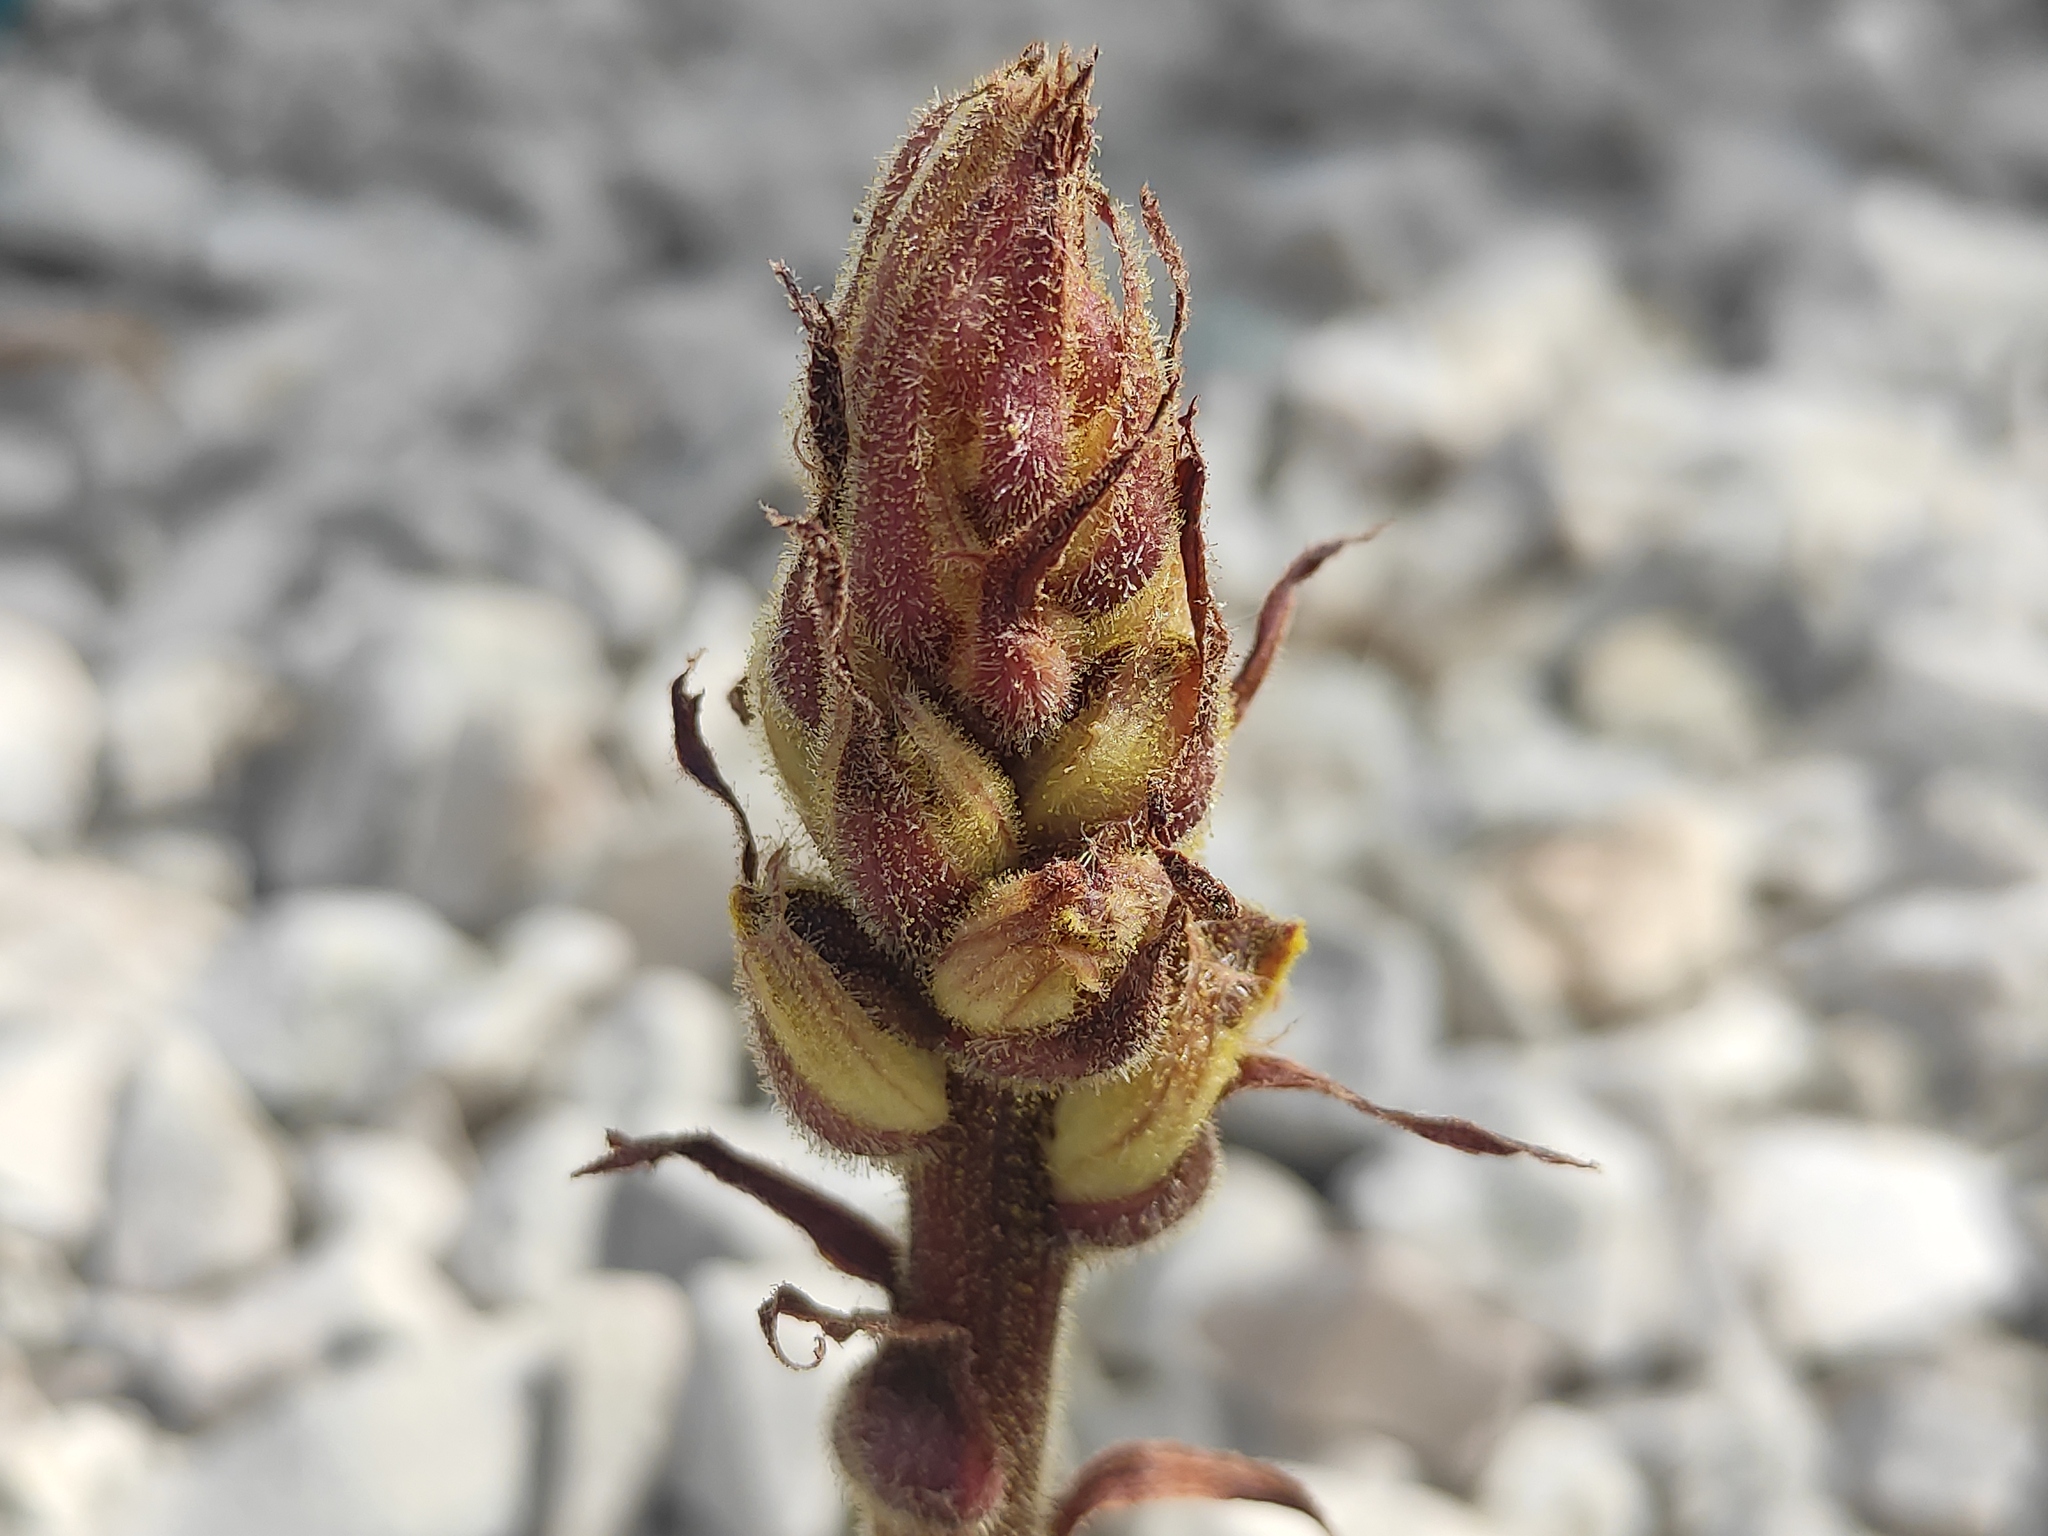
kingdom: Plantae
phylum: Tracheophyta
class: Magnoliopsida
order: Lamiales
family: Orobanchaceae
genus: Orobanche
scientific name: Orobanche gracilis
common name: Slender broomrape
